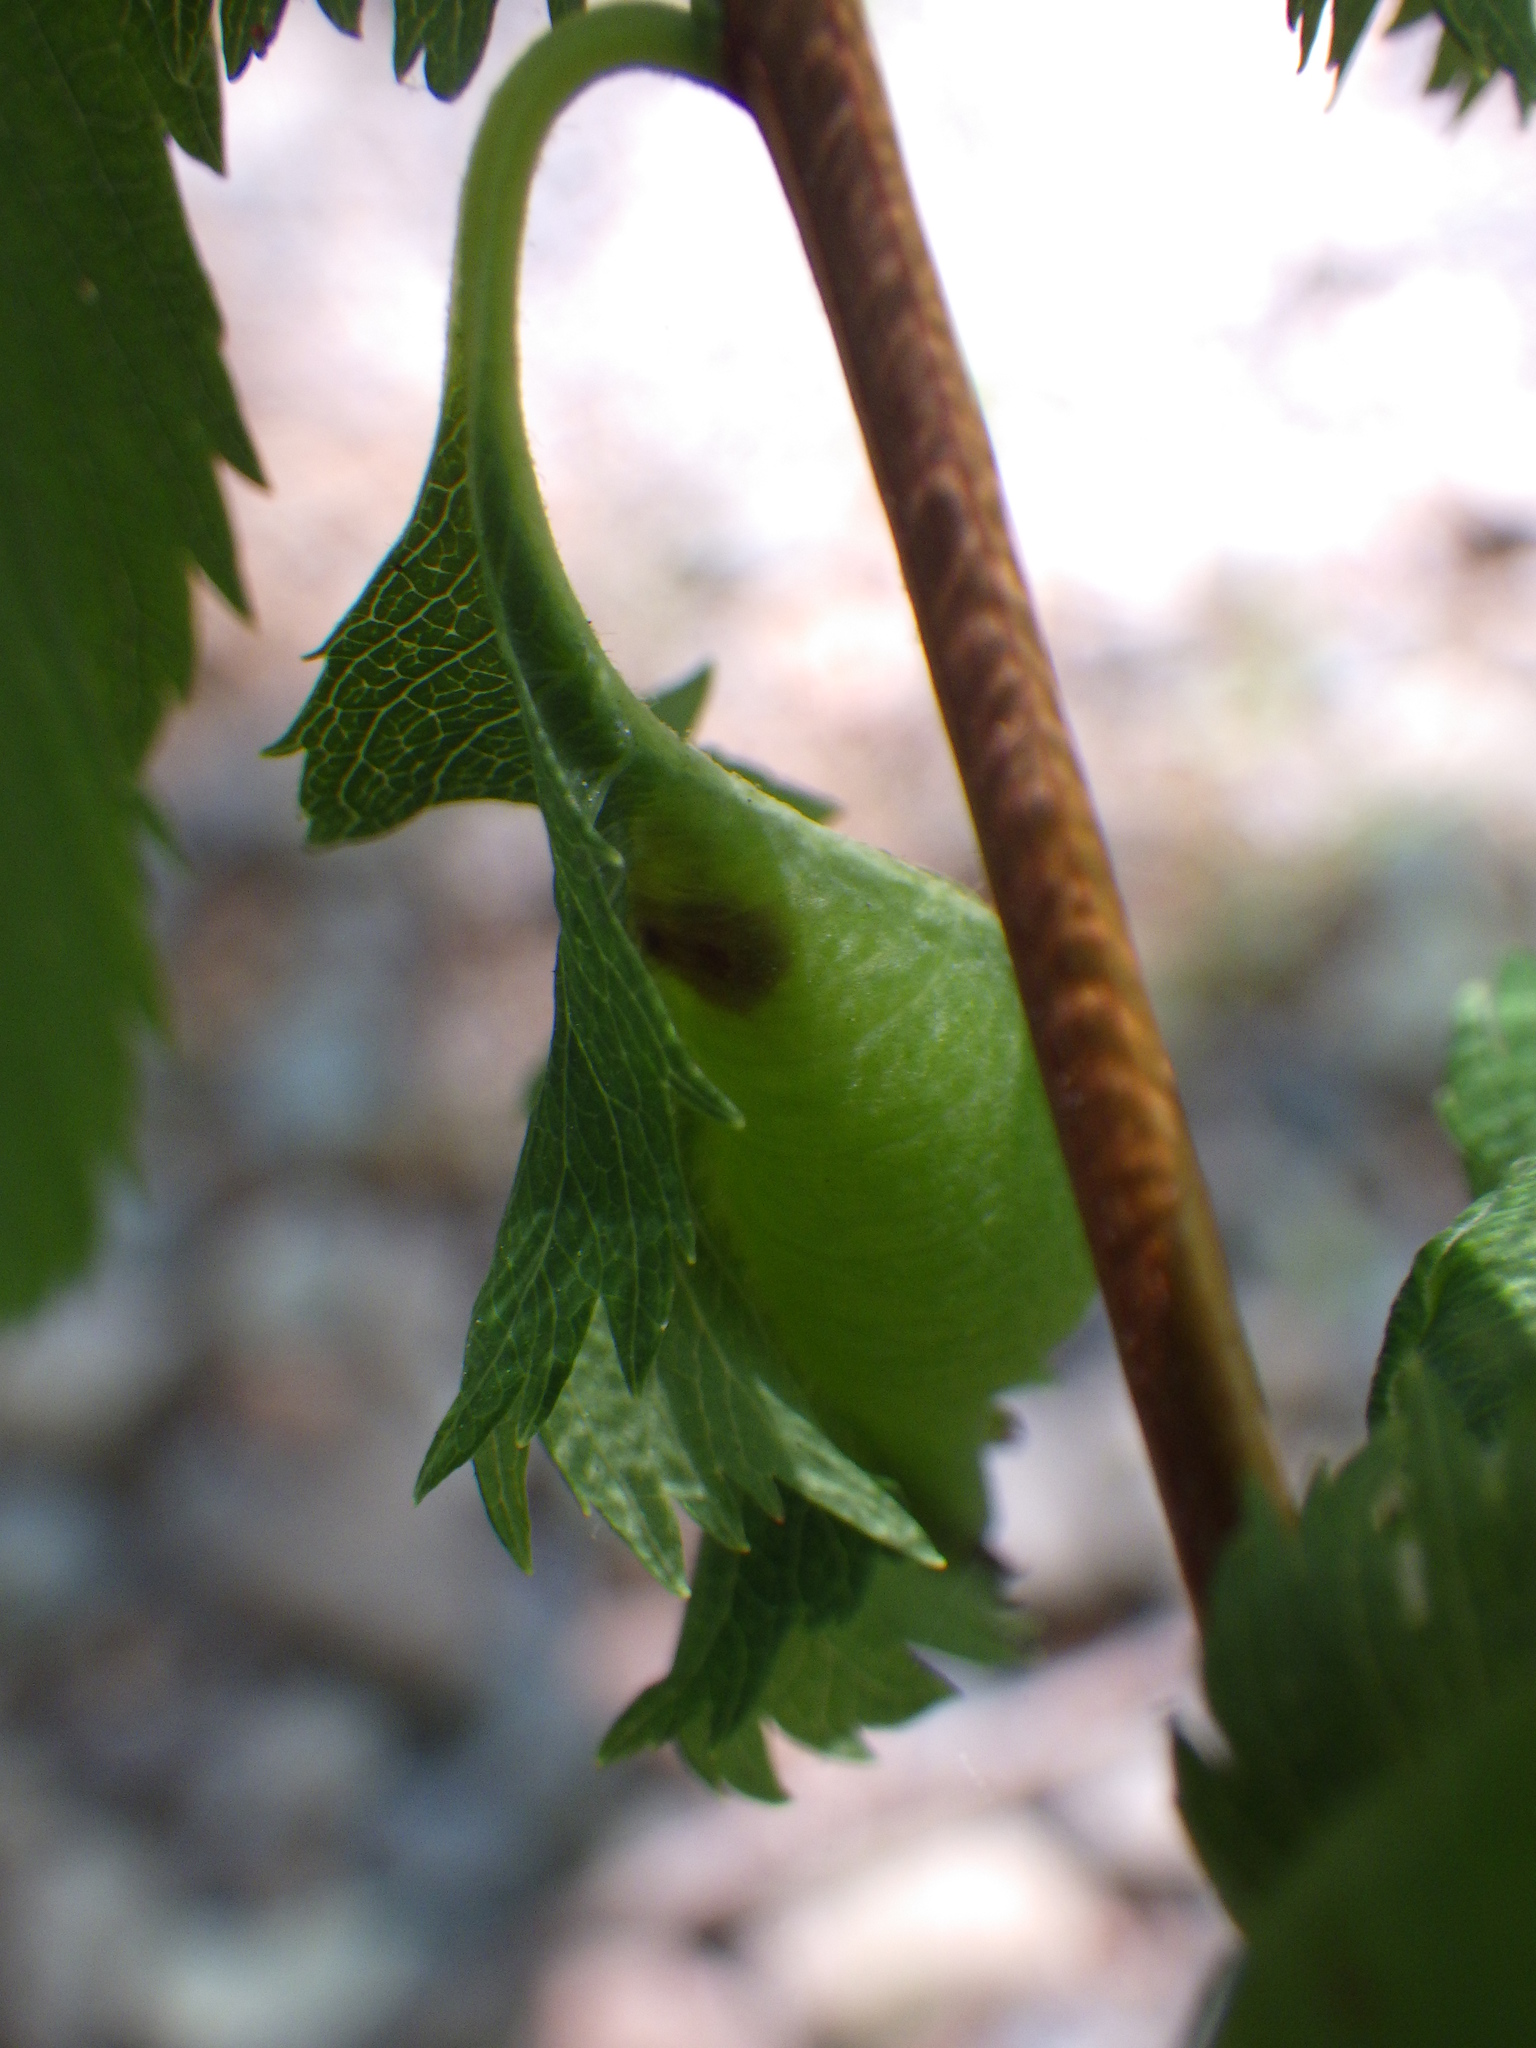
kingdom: Animalia
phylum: Arthropoda
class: Insecta
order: Diptera
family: Cecidomyiidae
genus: Dasineura
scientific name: Dasineura salicifoliae
